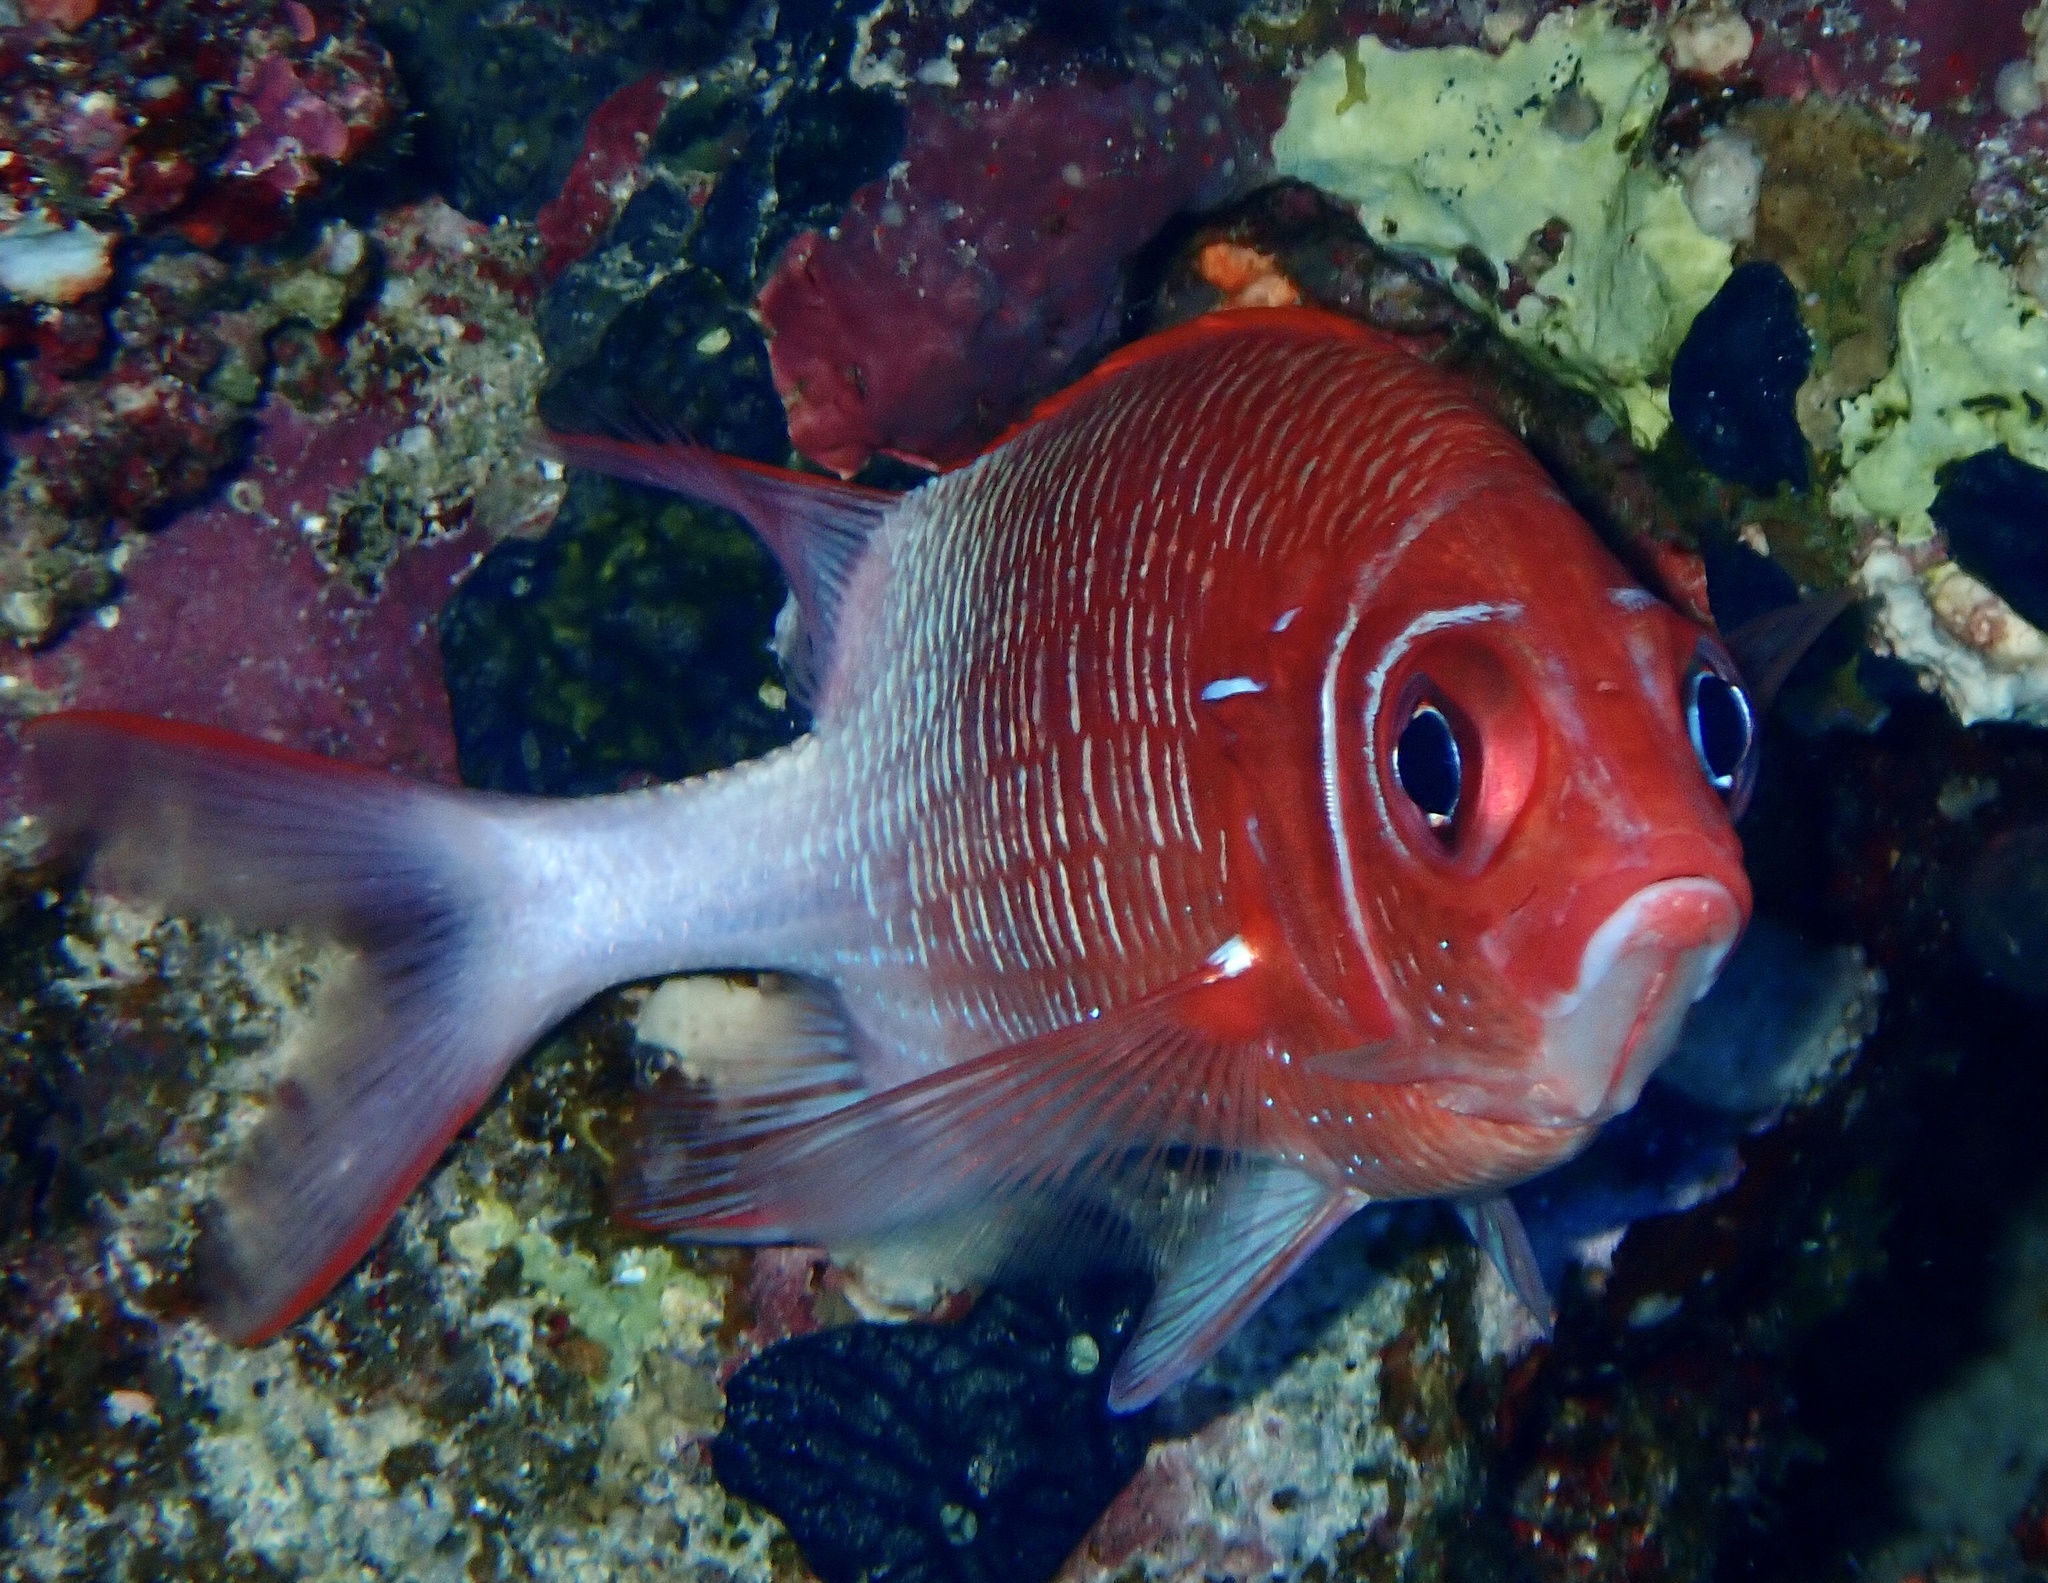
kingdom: Animalia
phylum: Chordata
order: Beryciformes
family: Holocentridae
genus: Sargocentron
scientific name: Sargocentron caudimaculatum
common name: Fanfin soldier
